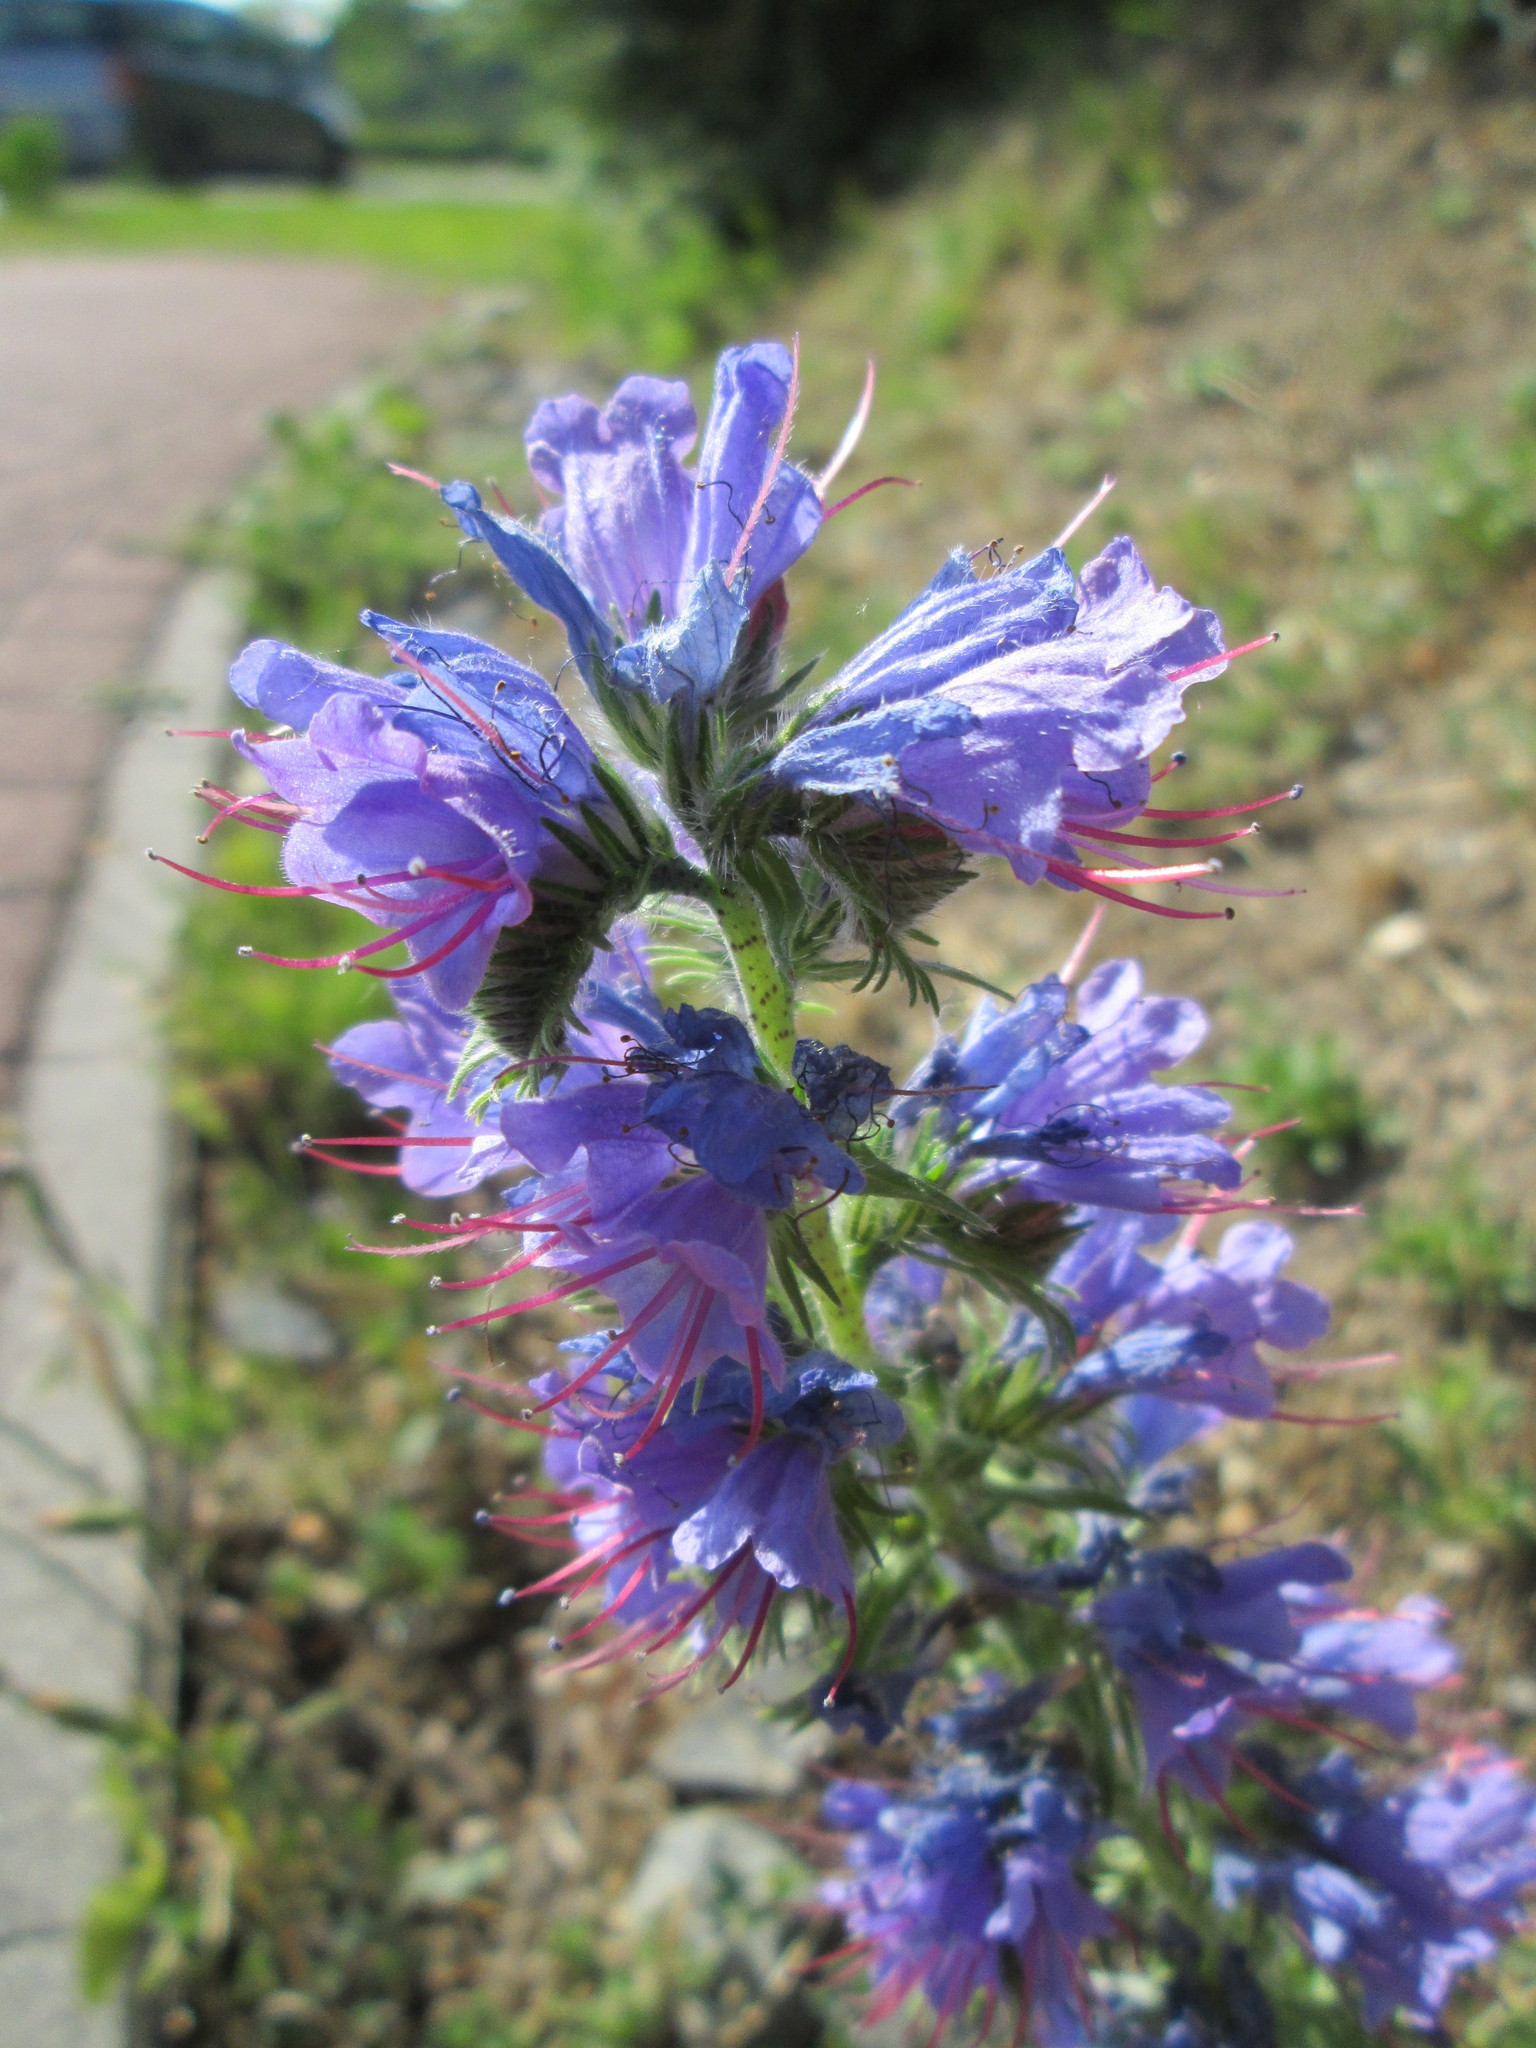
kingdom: Plantae
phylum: Tracheophyta
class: Magnoliopsida
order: Boraginales
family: Boraginaceae
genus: Echium
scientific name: Echium vulgare
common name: Common viper's bugloss
